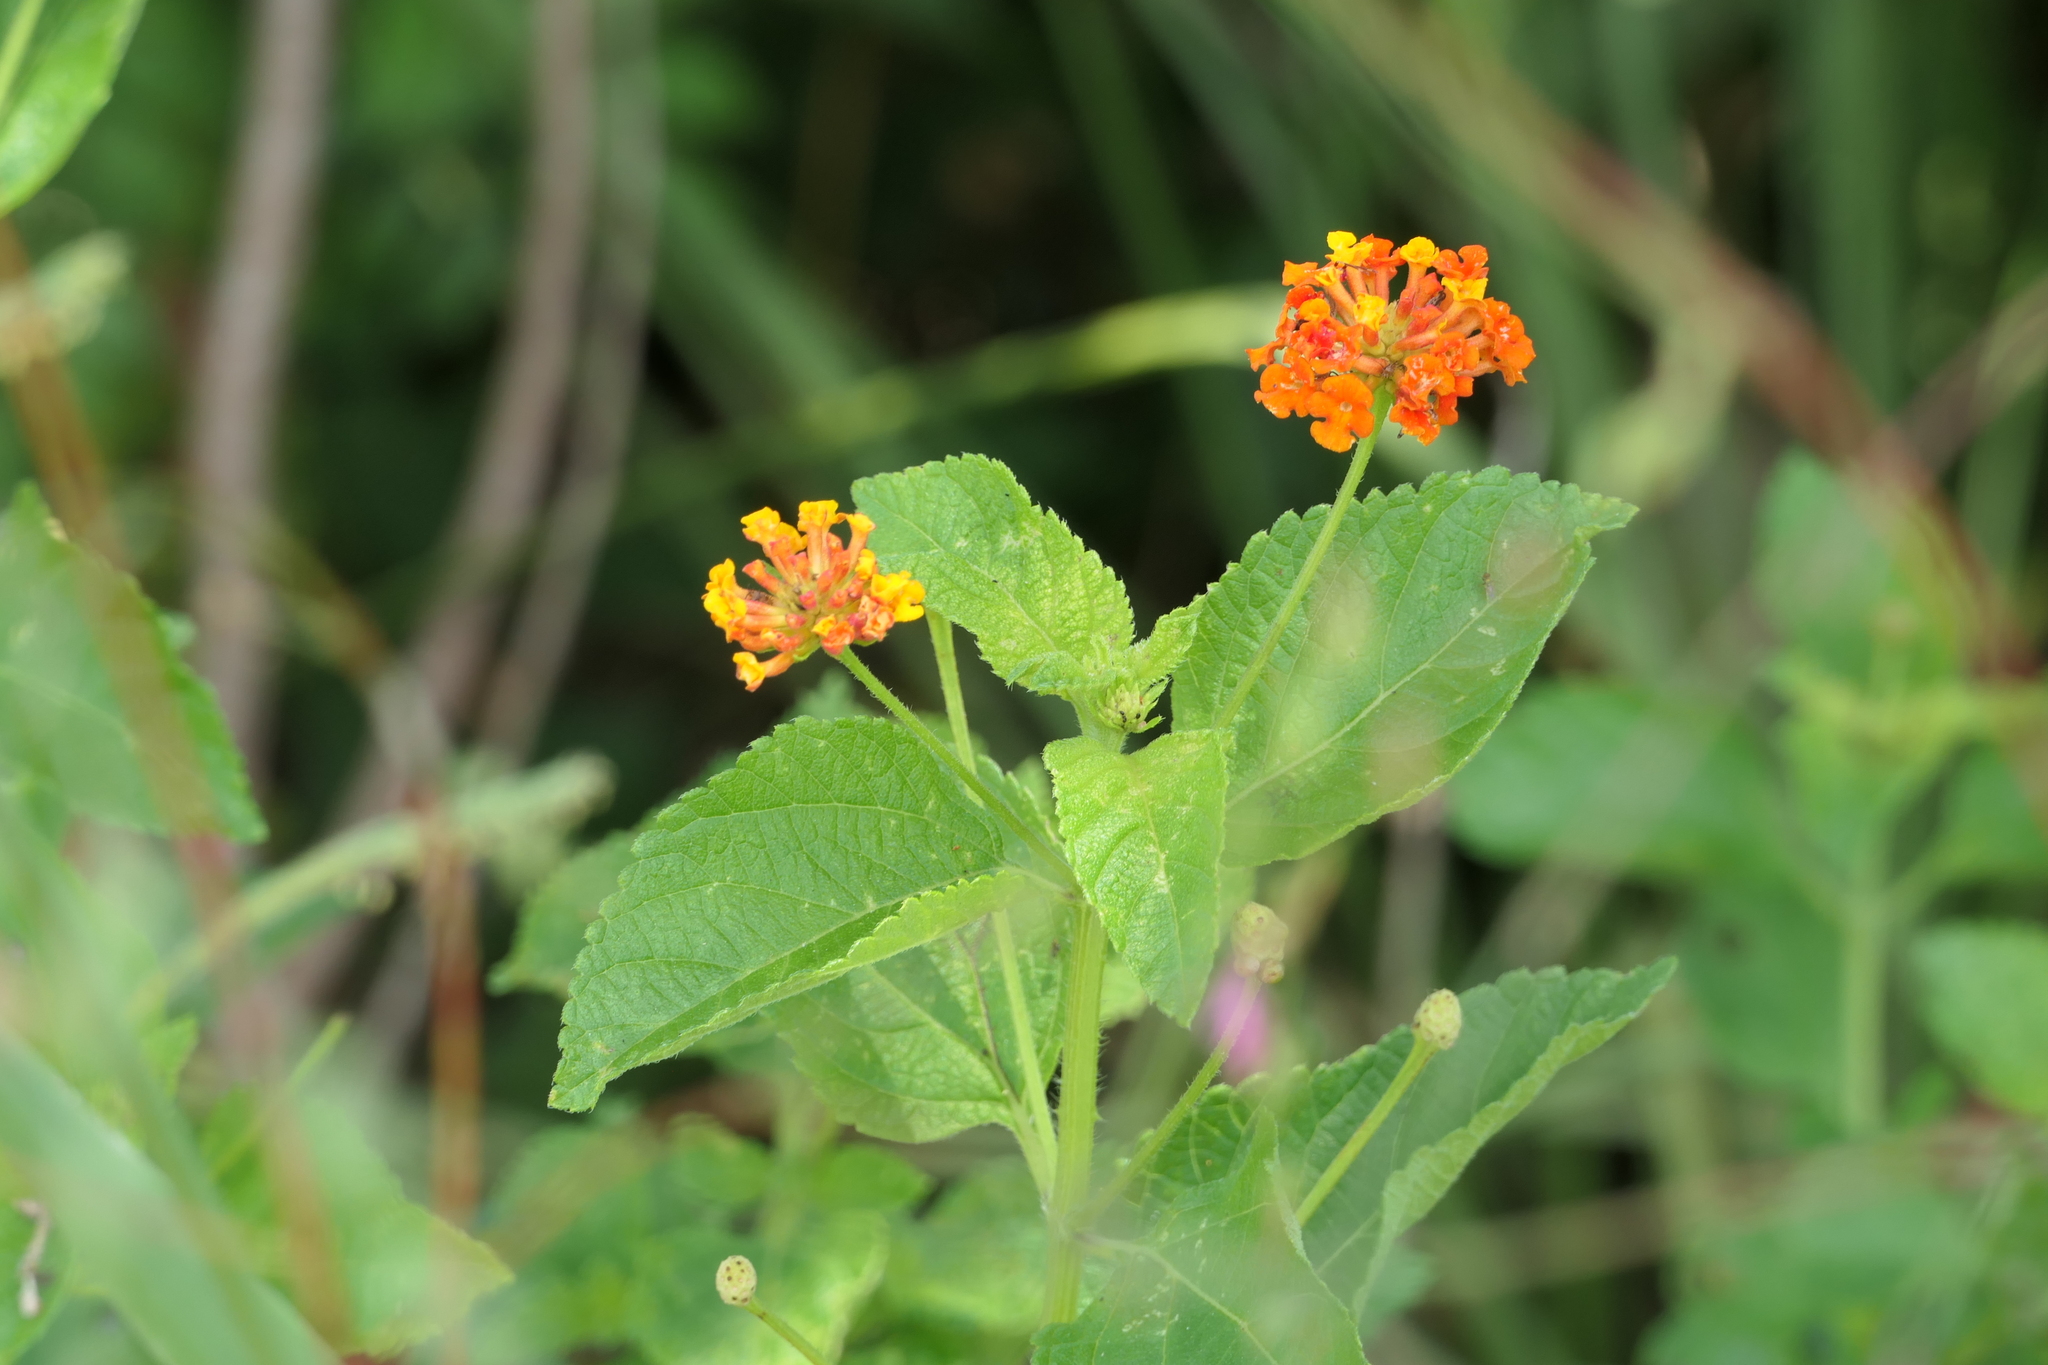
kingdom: Plantae
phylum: Tracheophyta
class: Magnoliopsida
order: Lamiales
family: Verbenaceae
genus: Lantana
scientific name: Lantana camara
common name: Lantana
